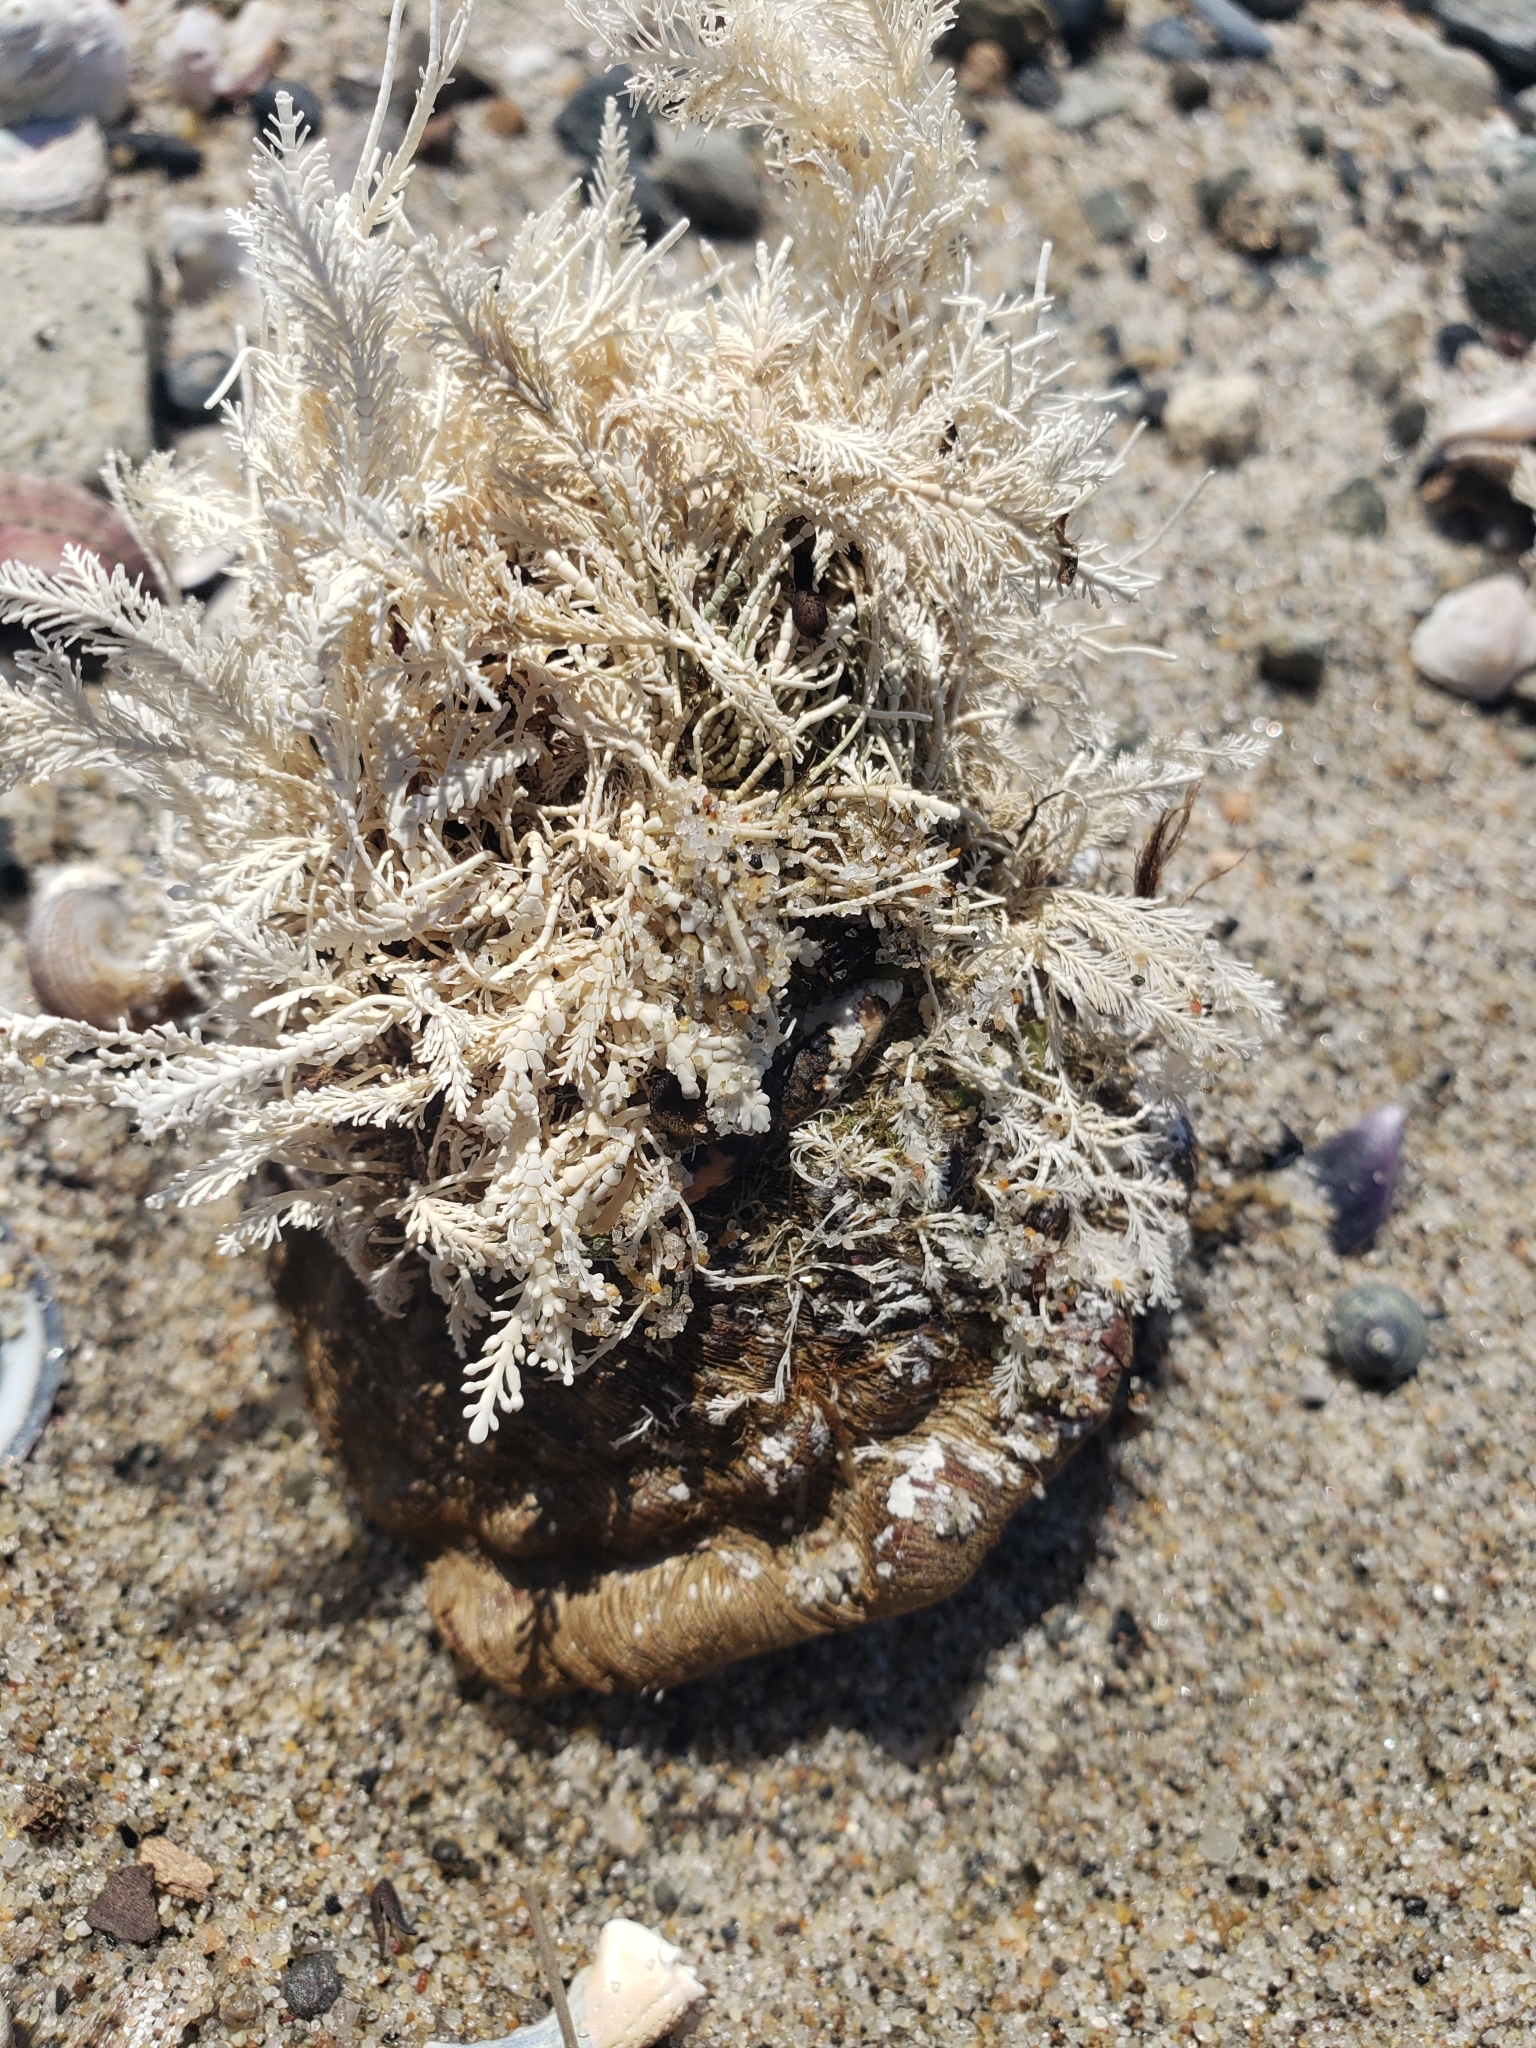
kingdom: Animalia
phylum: Mollusca
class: Gastropoda
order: Trochida
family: Turbinidae
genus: Megastraea
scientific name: Megastraea undosa
